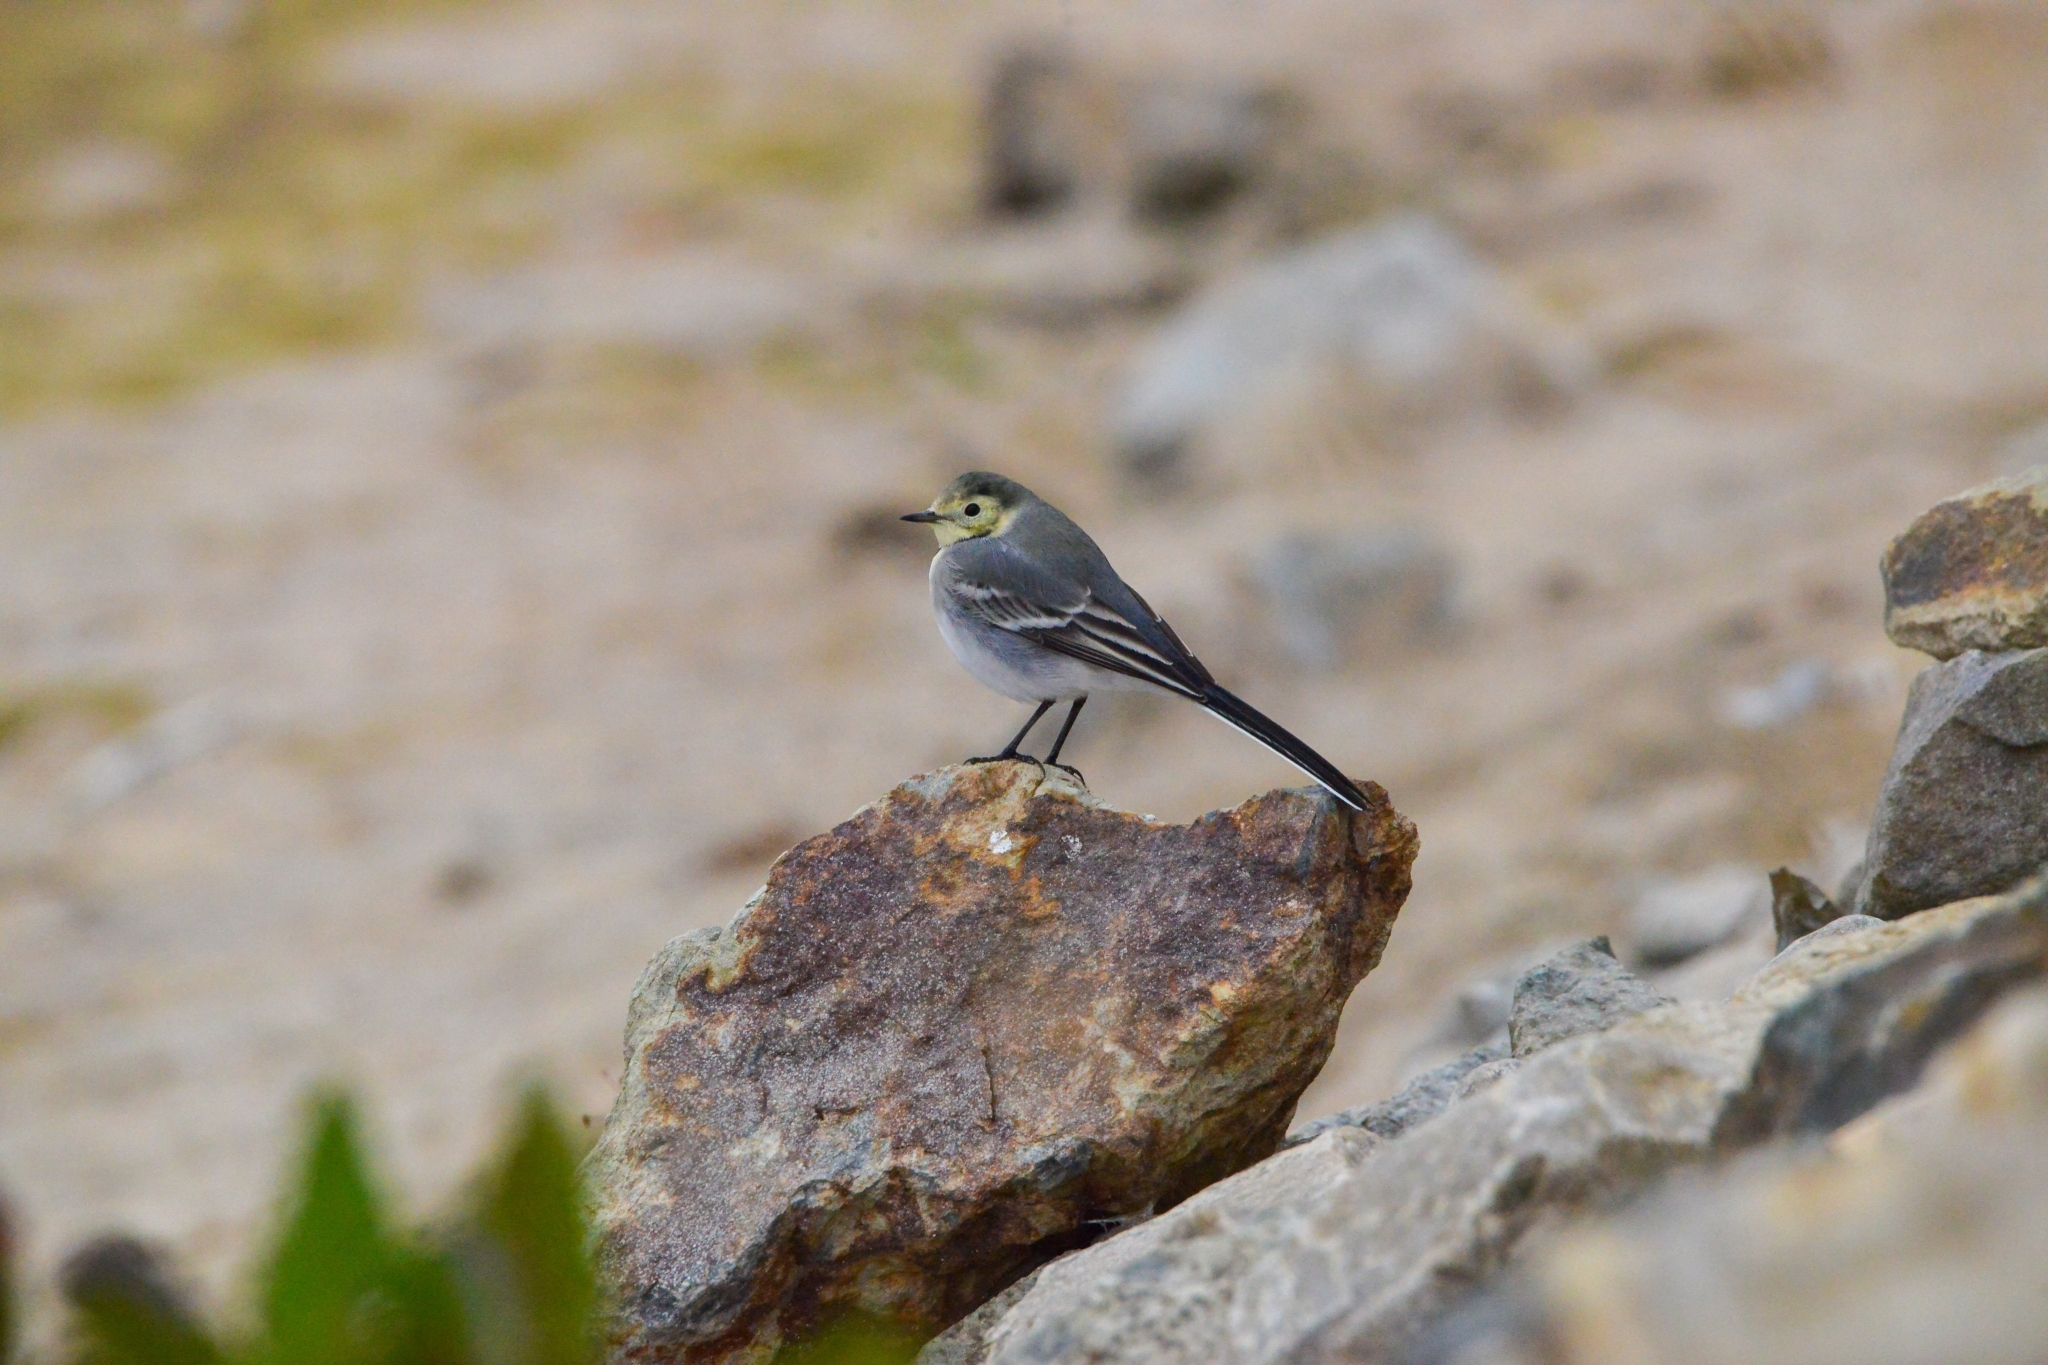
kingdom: Animalia
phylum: Chordata
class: Aves
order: Passeriformes
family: Motacillidae
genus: Motacilla
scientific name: Motacilla alba
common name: White wagtail
